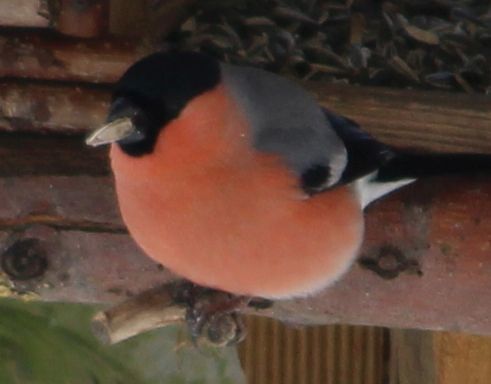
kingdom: Animalia
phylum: Chordata
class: Aves
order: Passeriformes
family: Fringillidae
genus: Pyrrhula
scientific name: Pyrrhula pyrrhula
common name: Eurasian bullfinch
